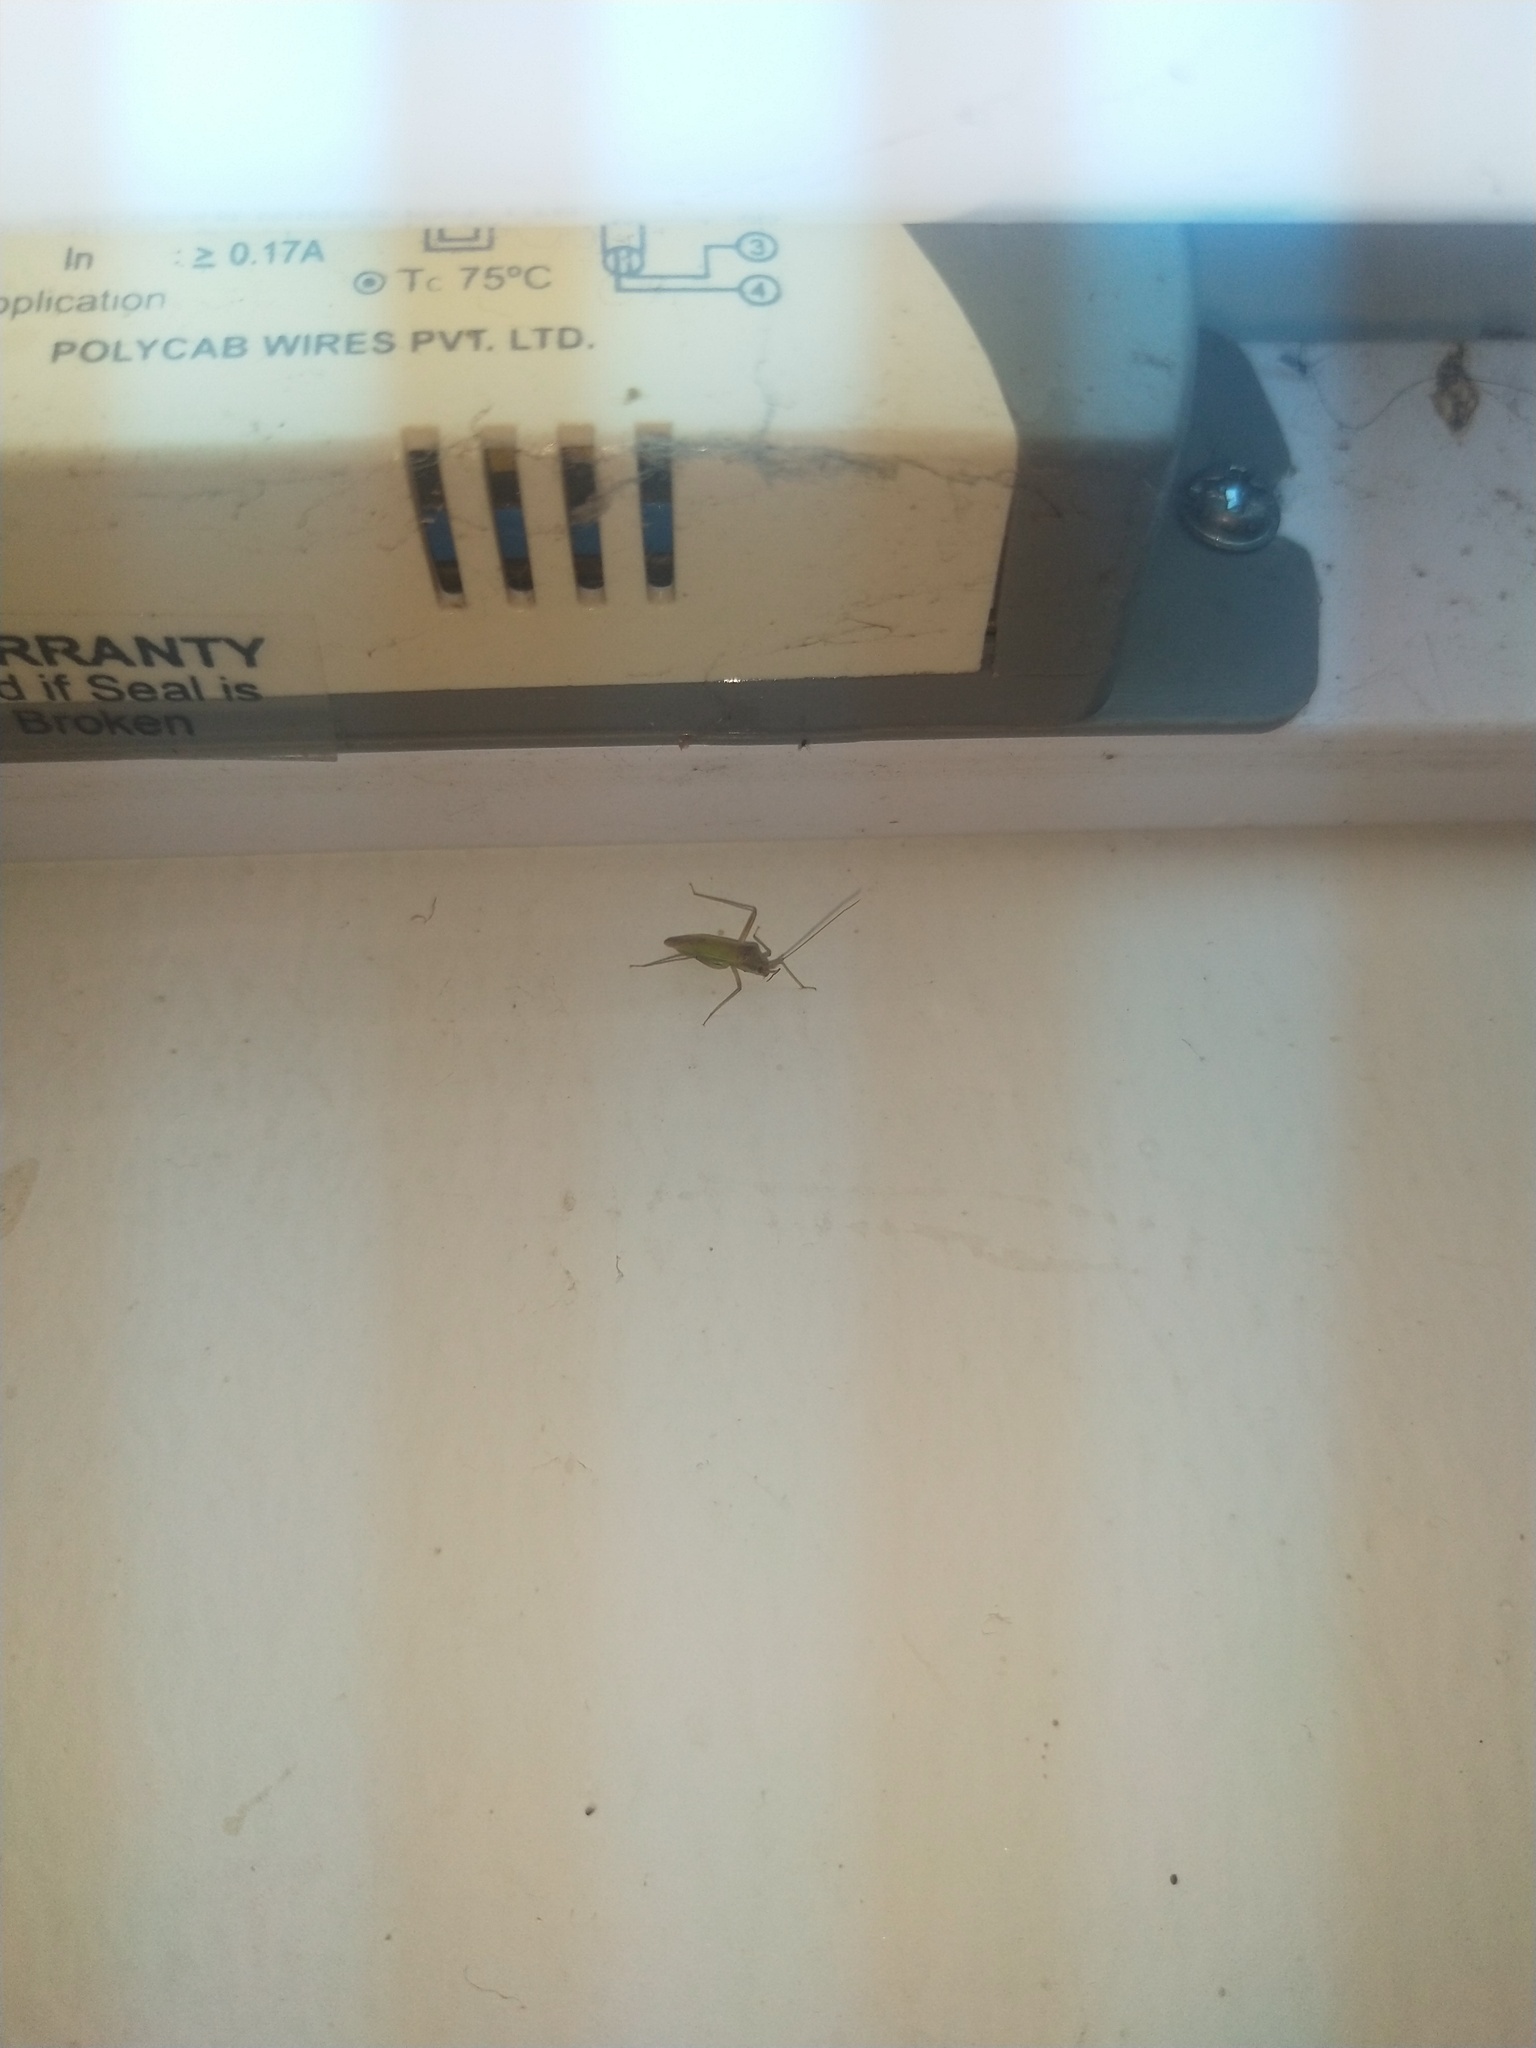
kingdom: Animalia
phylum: Arthropoda
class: Insecta
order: Hemiptera
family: Miridae
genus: Creontiades
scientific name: Creontiades pacificus
